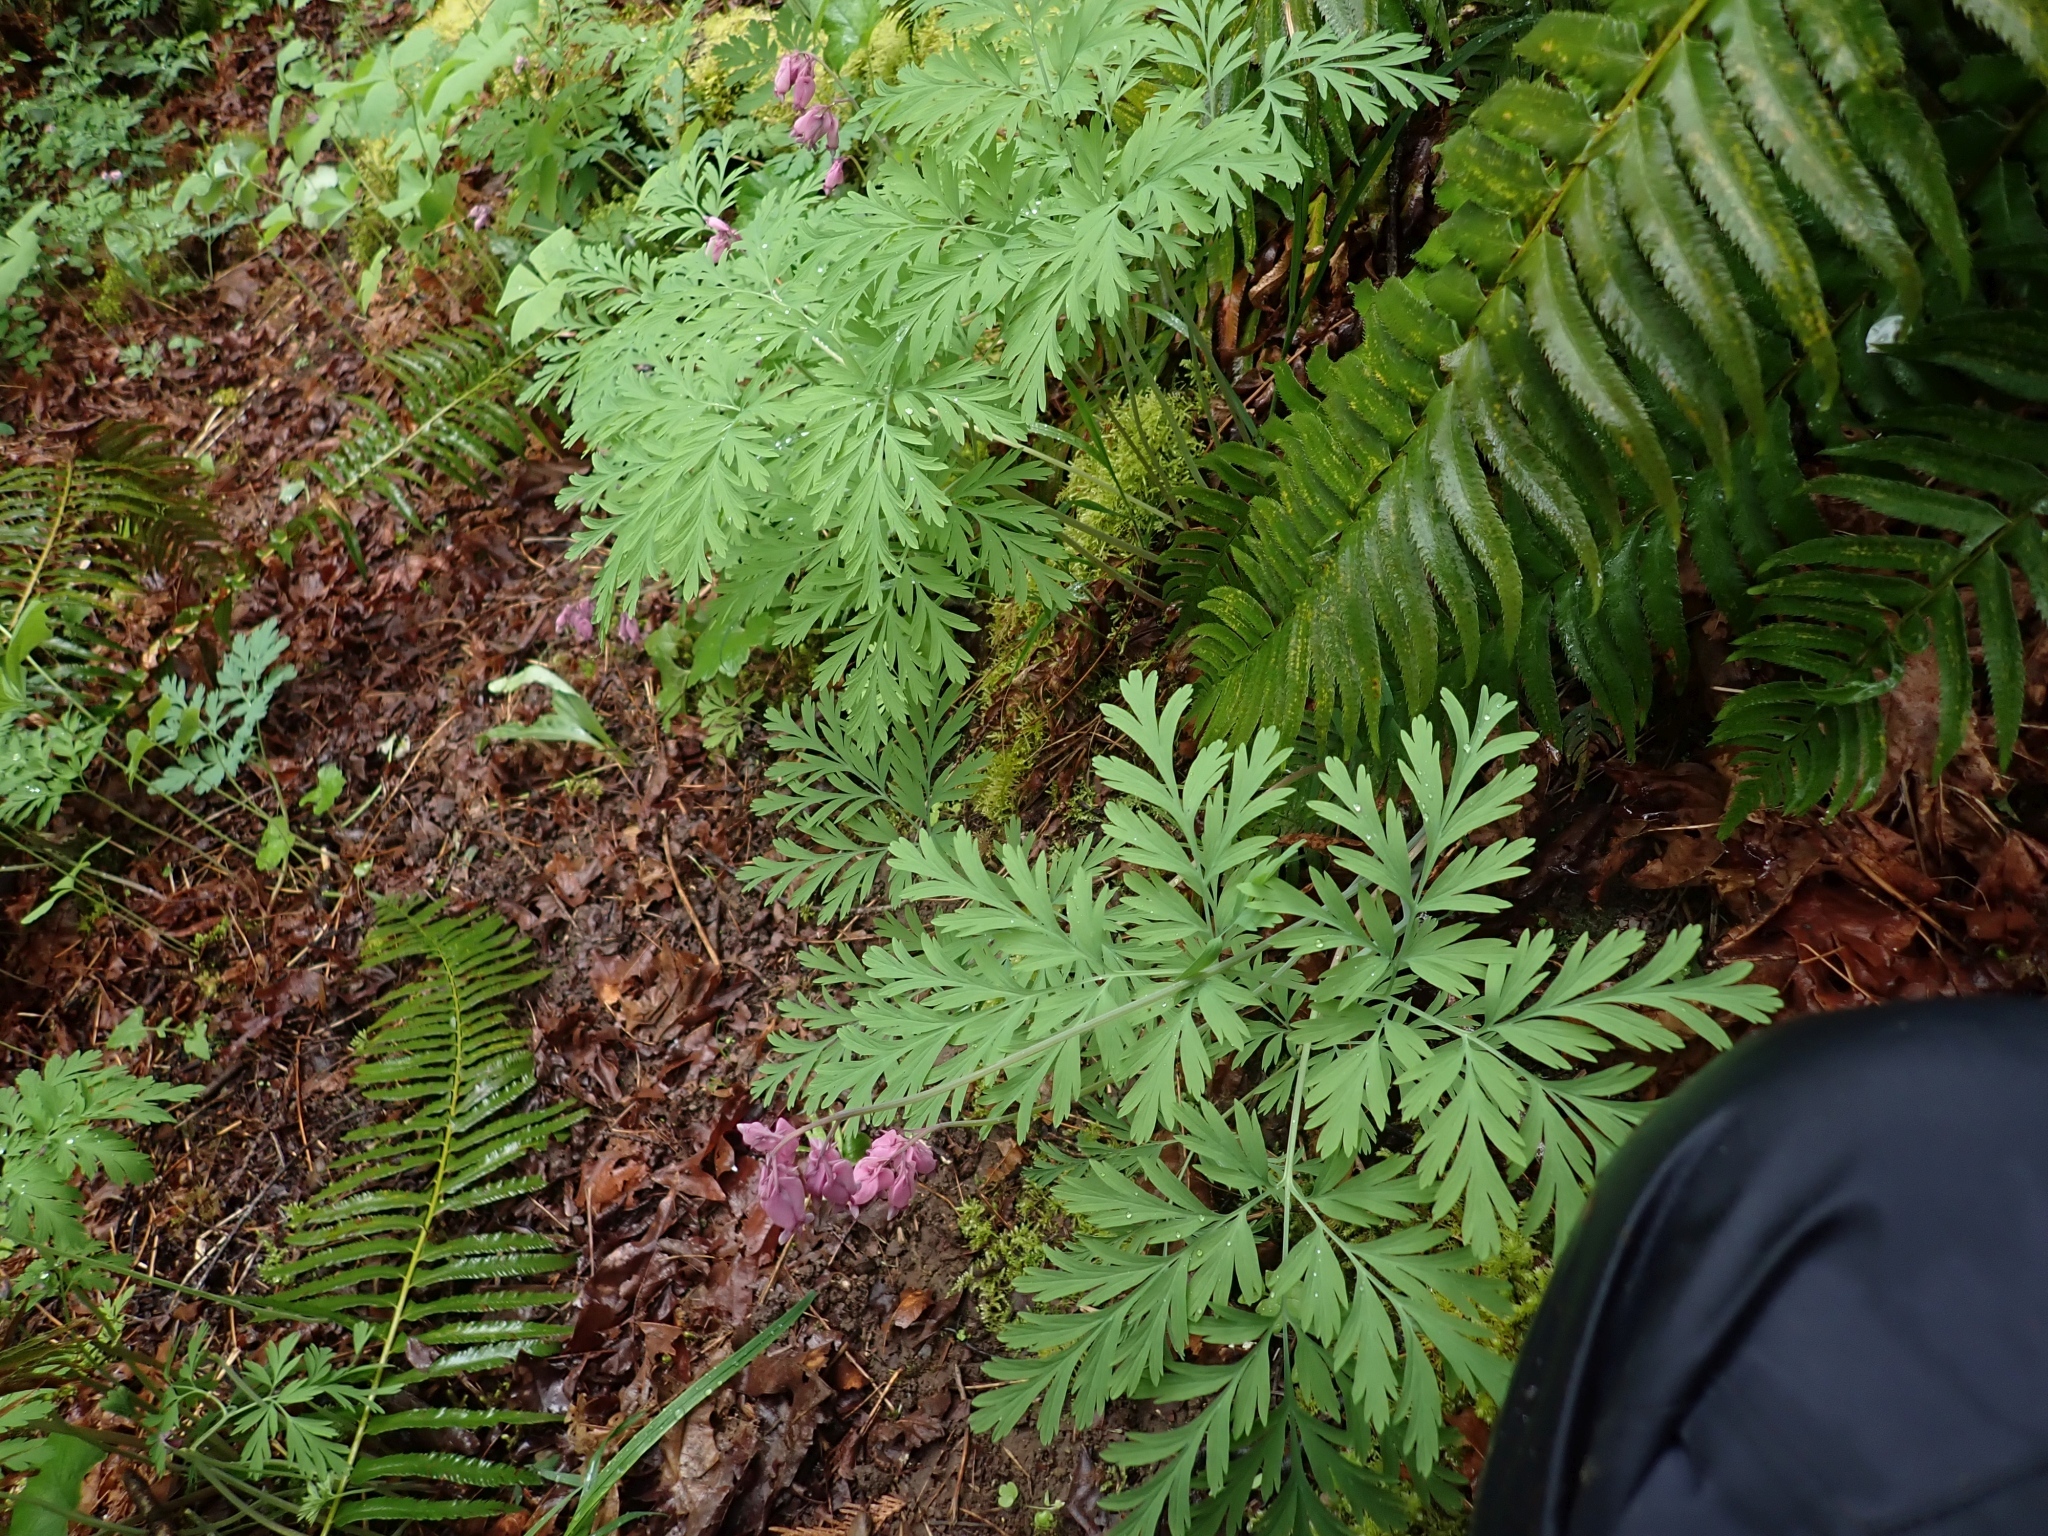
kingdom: Plantae
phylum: Tracheophyta
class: Magnoliopsida
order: Ranunculales
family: Papaveraceae
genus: Dicentra
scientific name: Dicentra formosa
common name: Bleeding-heart
